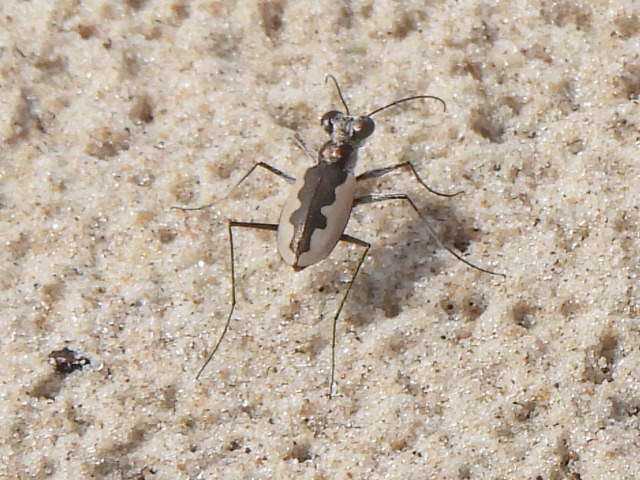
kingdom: Animalia
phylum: Arthropoda
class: Insecta
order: Coleoptera
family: Carabidae
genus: Eunota
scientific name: Eunota togata
